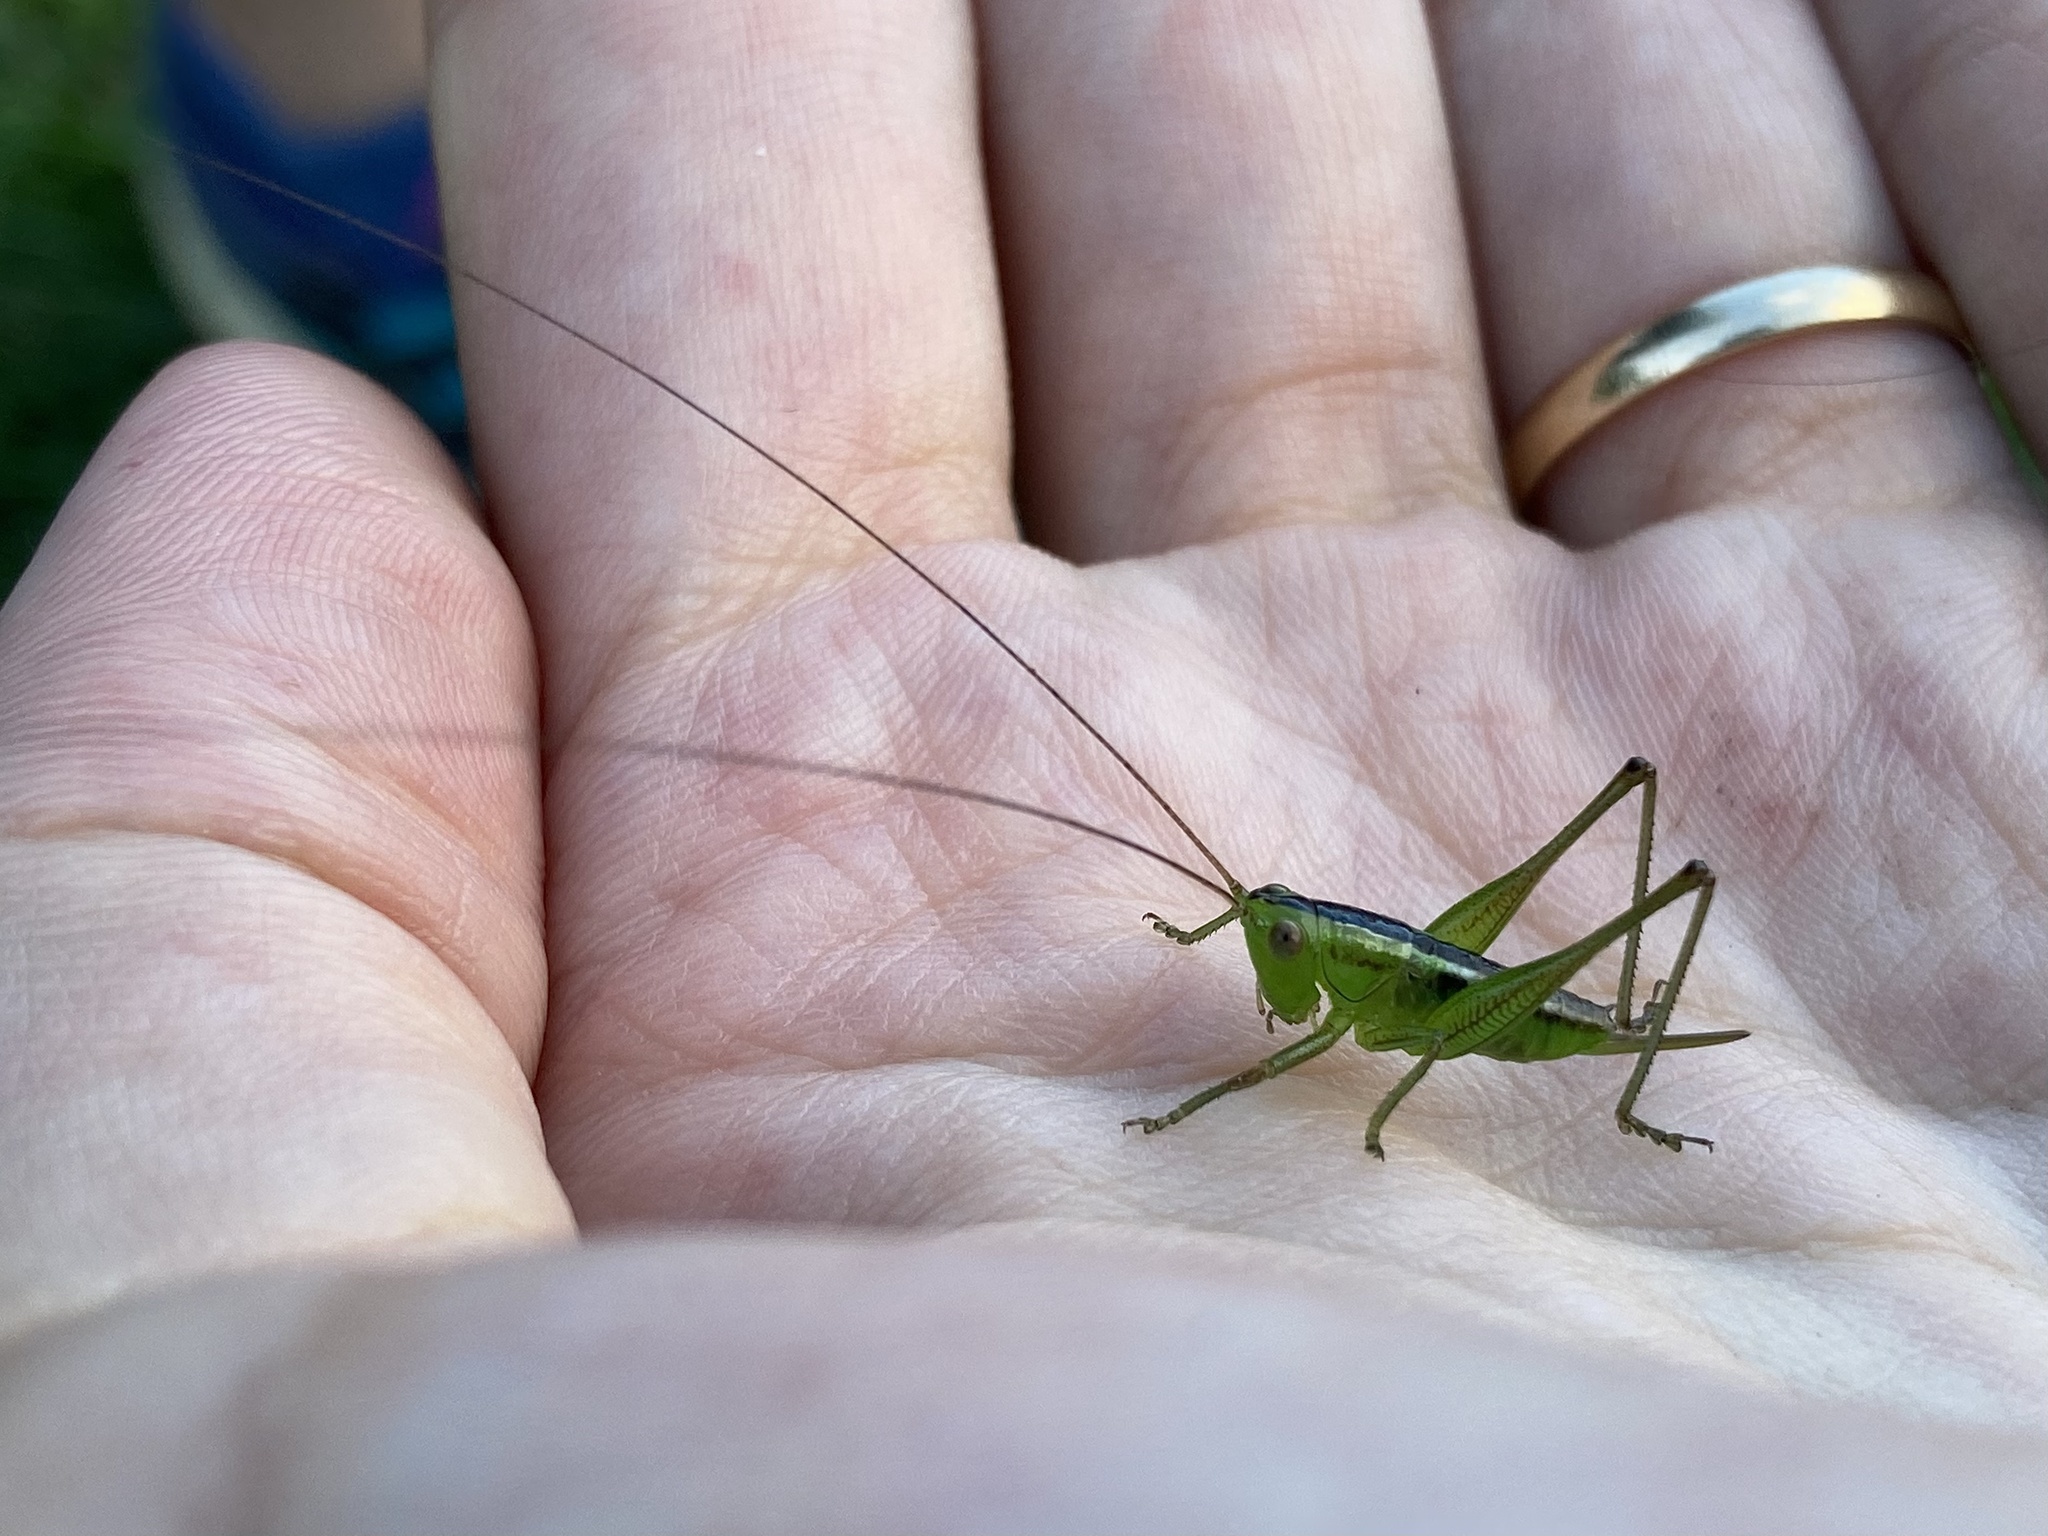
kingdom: Animalia
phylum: Arthropoda
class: Insecta
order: Orthoptera
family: Tettigoniidae
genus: Conocephalus
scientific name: Conocephalus semivittatus
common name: Blackish meadow katydid
